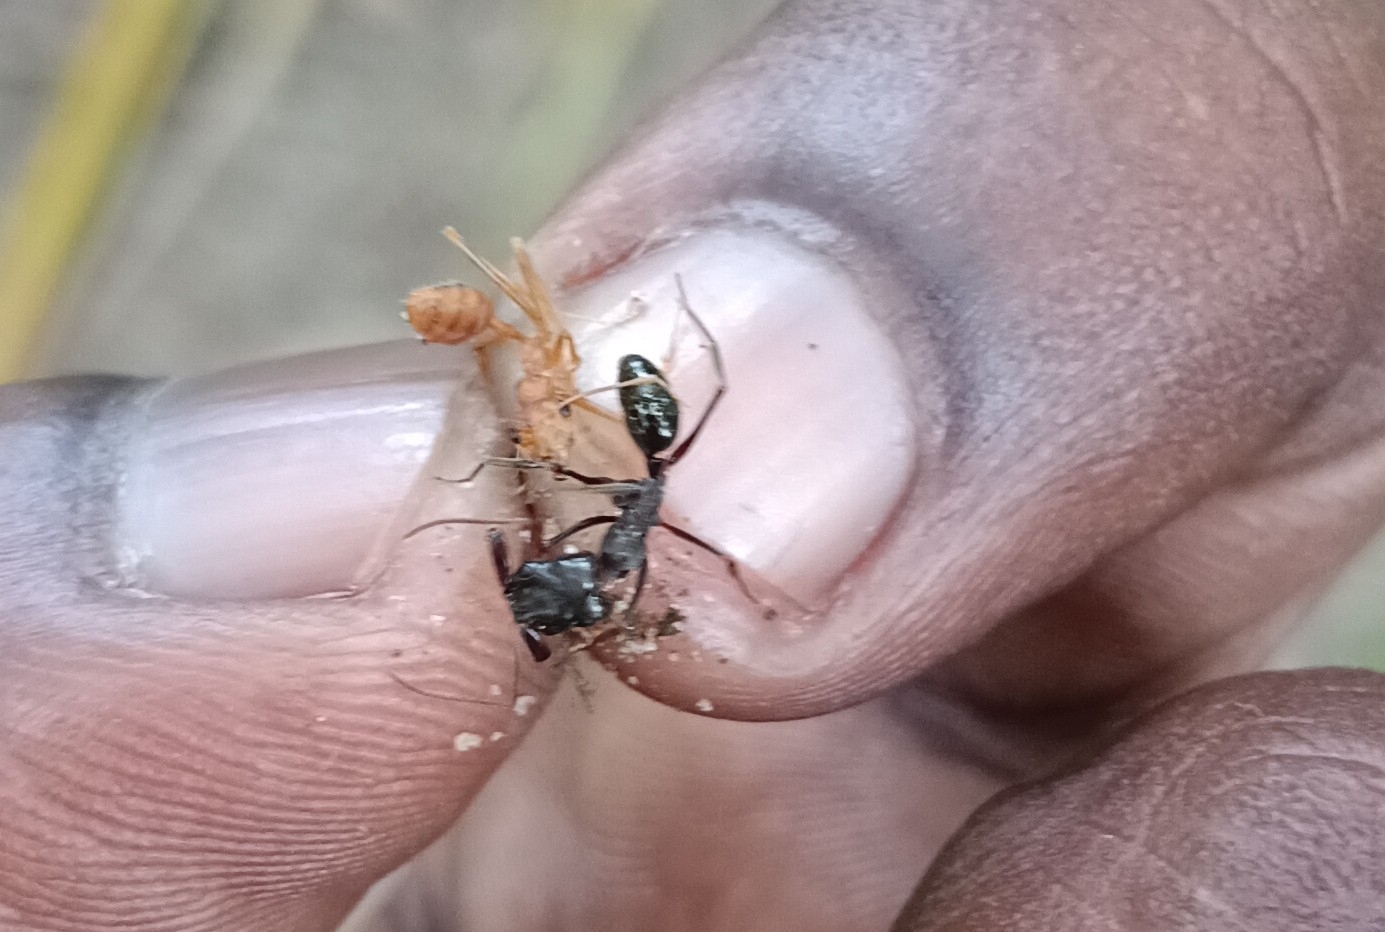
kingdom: Animalia
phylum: Arthropoda
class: Insecta
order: Hymenoptera
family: Formicidae
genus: Odontomachus
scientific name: Odontomachus simillimus
